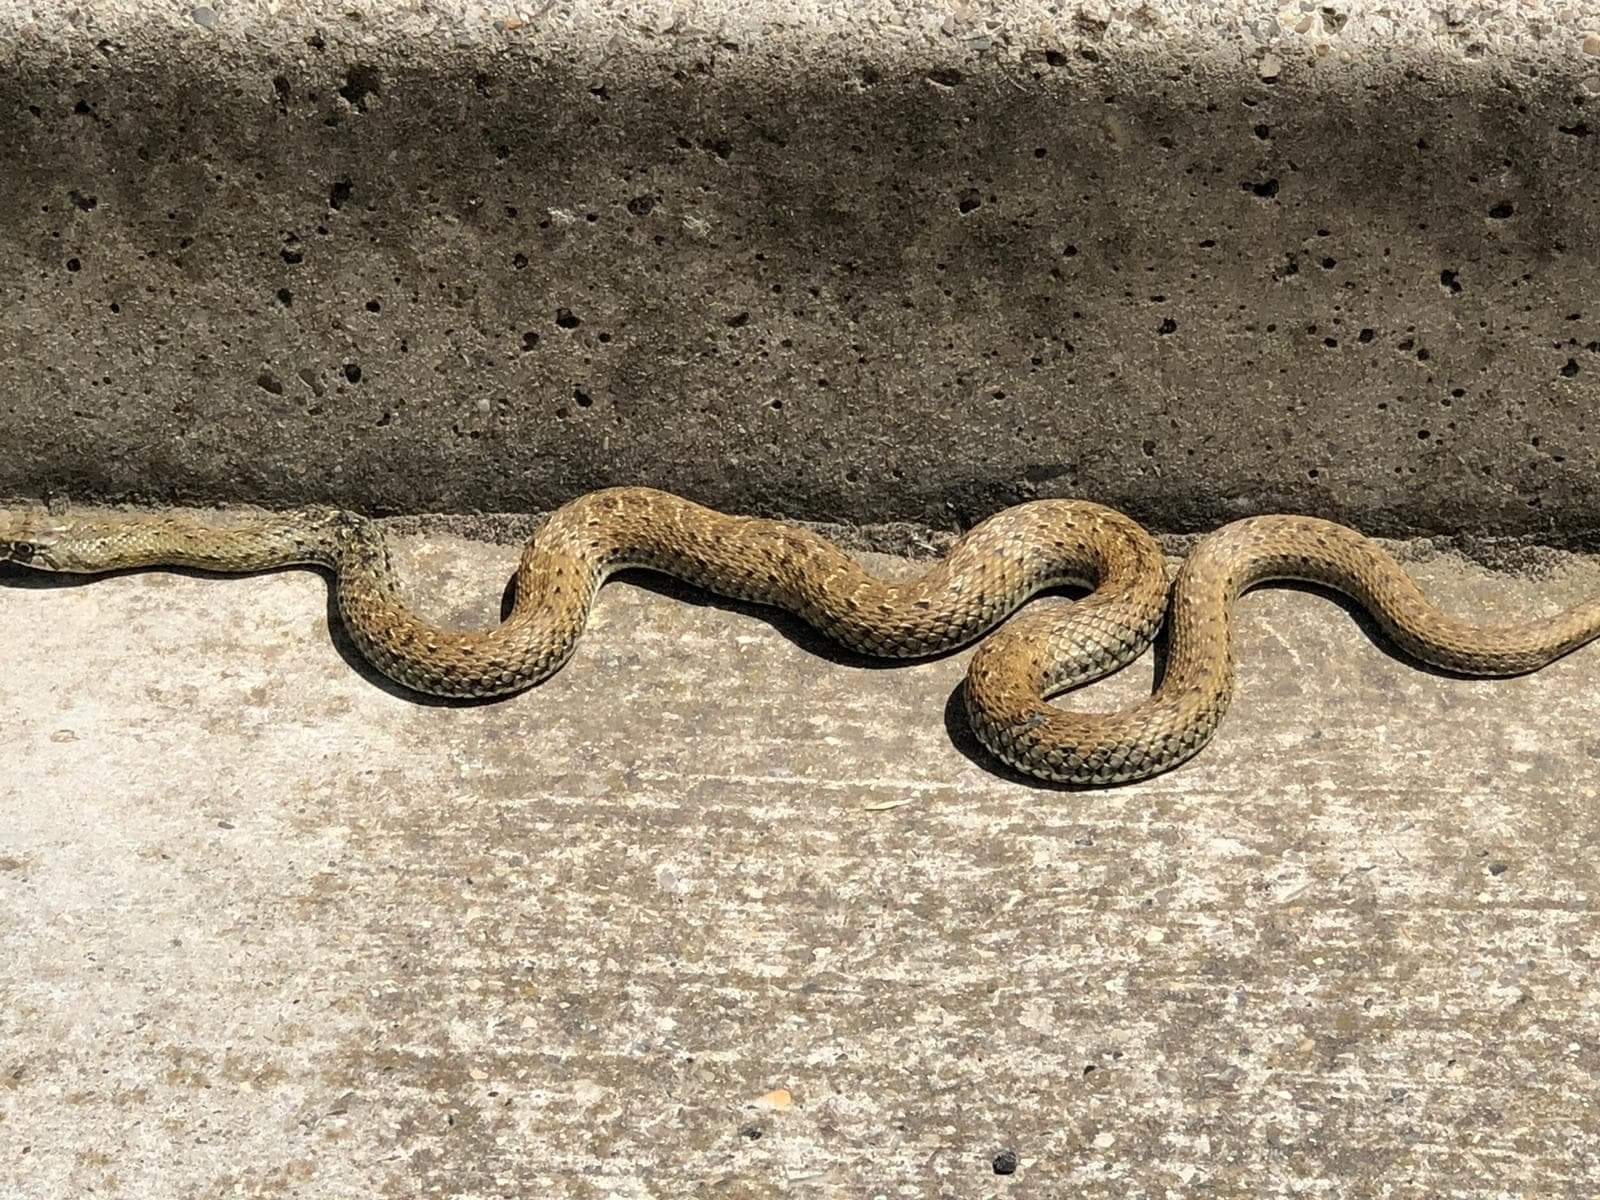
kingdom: Animalia
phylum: Chordata
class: Squamata
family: Psammophiidae
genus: Malpolon
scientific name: Malpolon monspessulanus
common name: Montpellier snake
